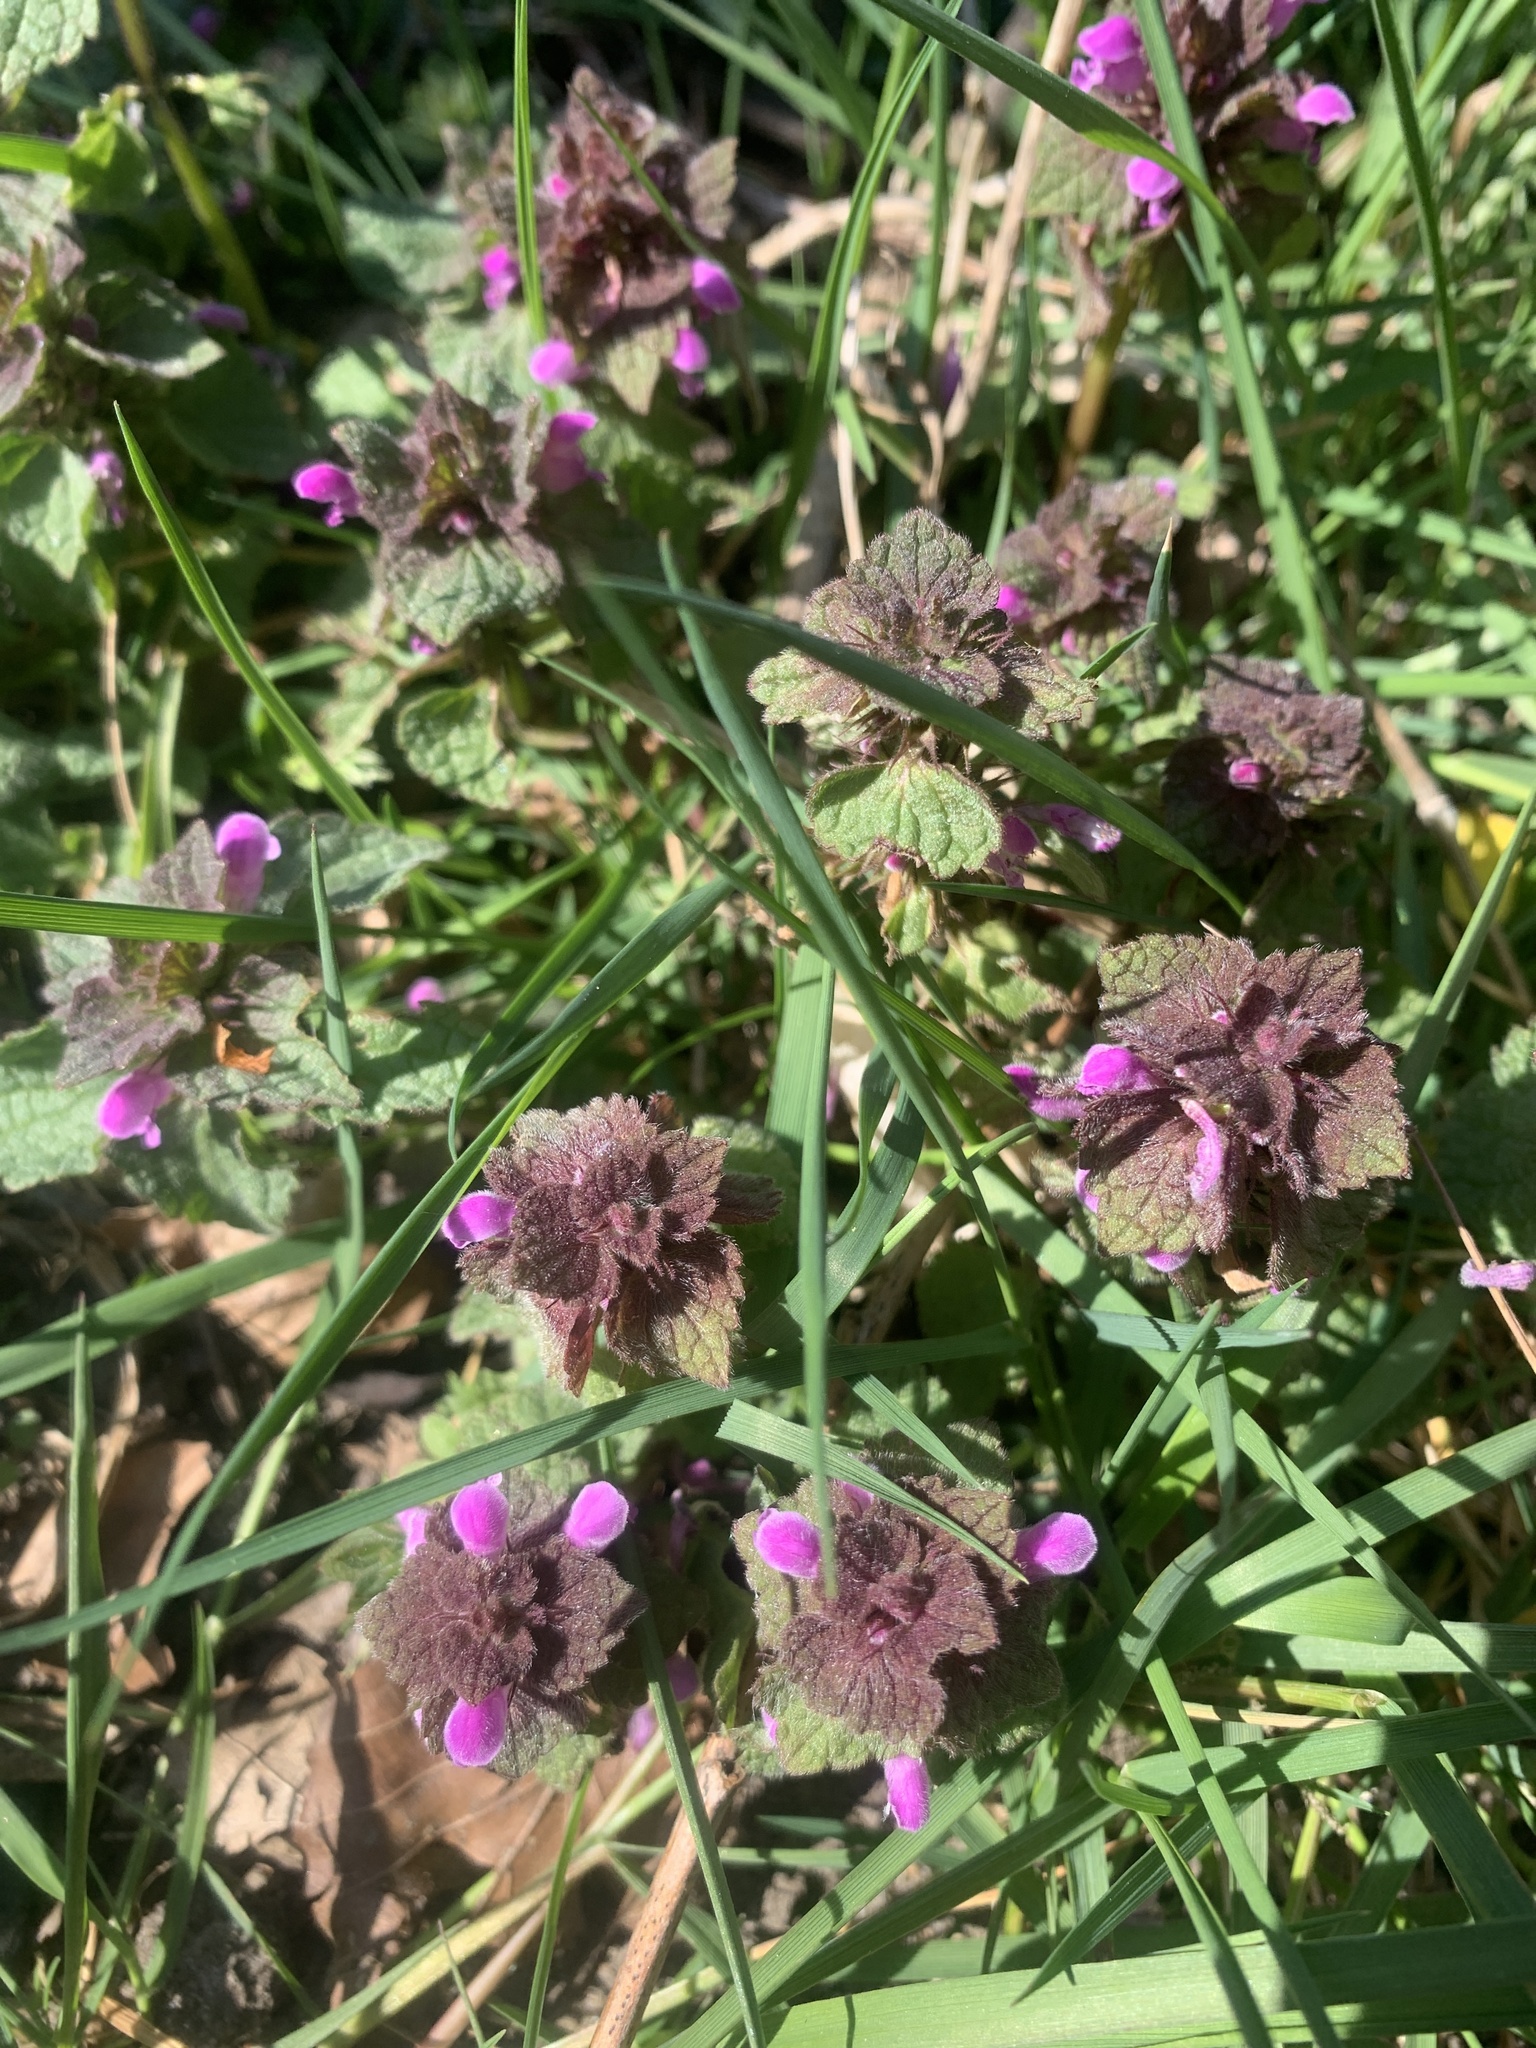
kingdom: Plantae
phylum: Tracheophyta
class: Magnoliopsida
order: Lamiales
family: Lamiaceae
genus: Lamium
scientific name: Lamium purpureum
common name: Red dead-nettle
